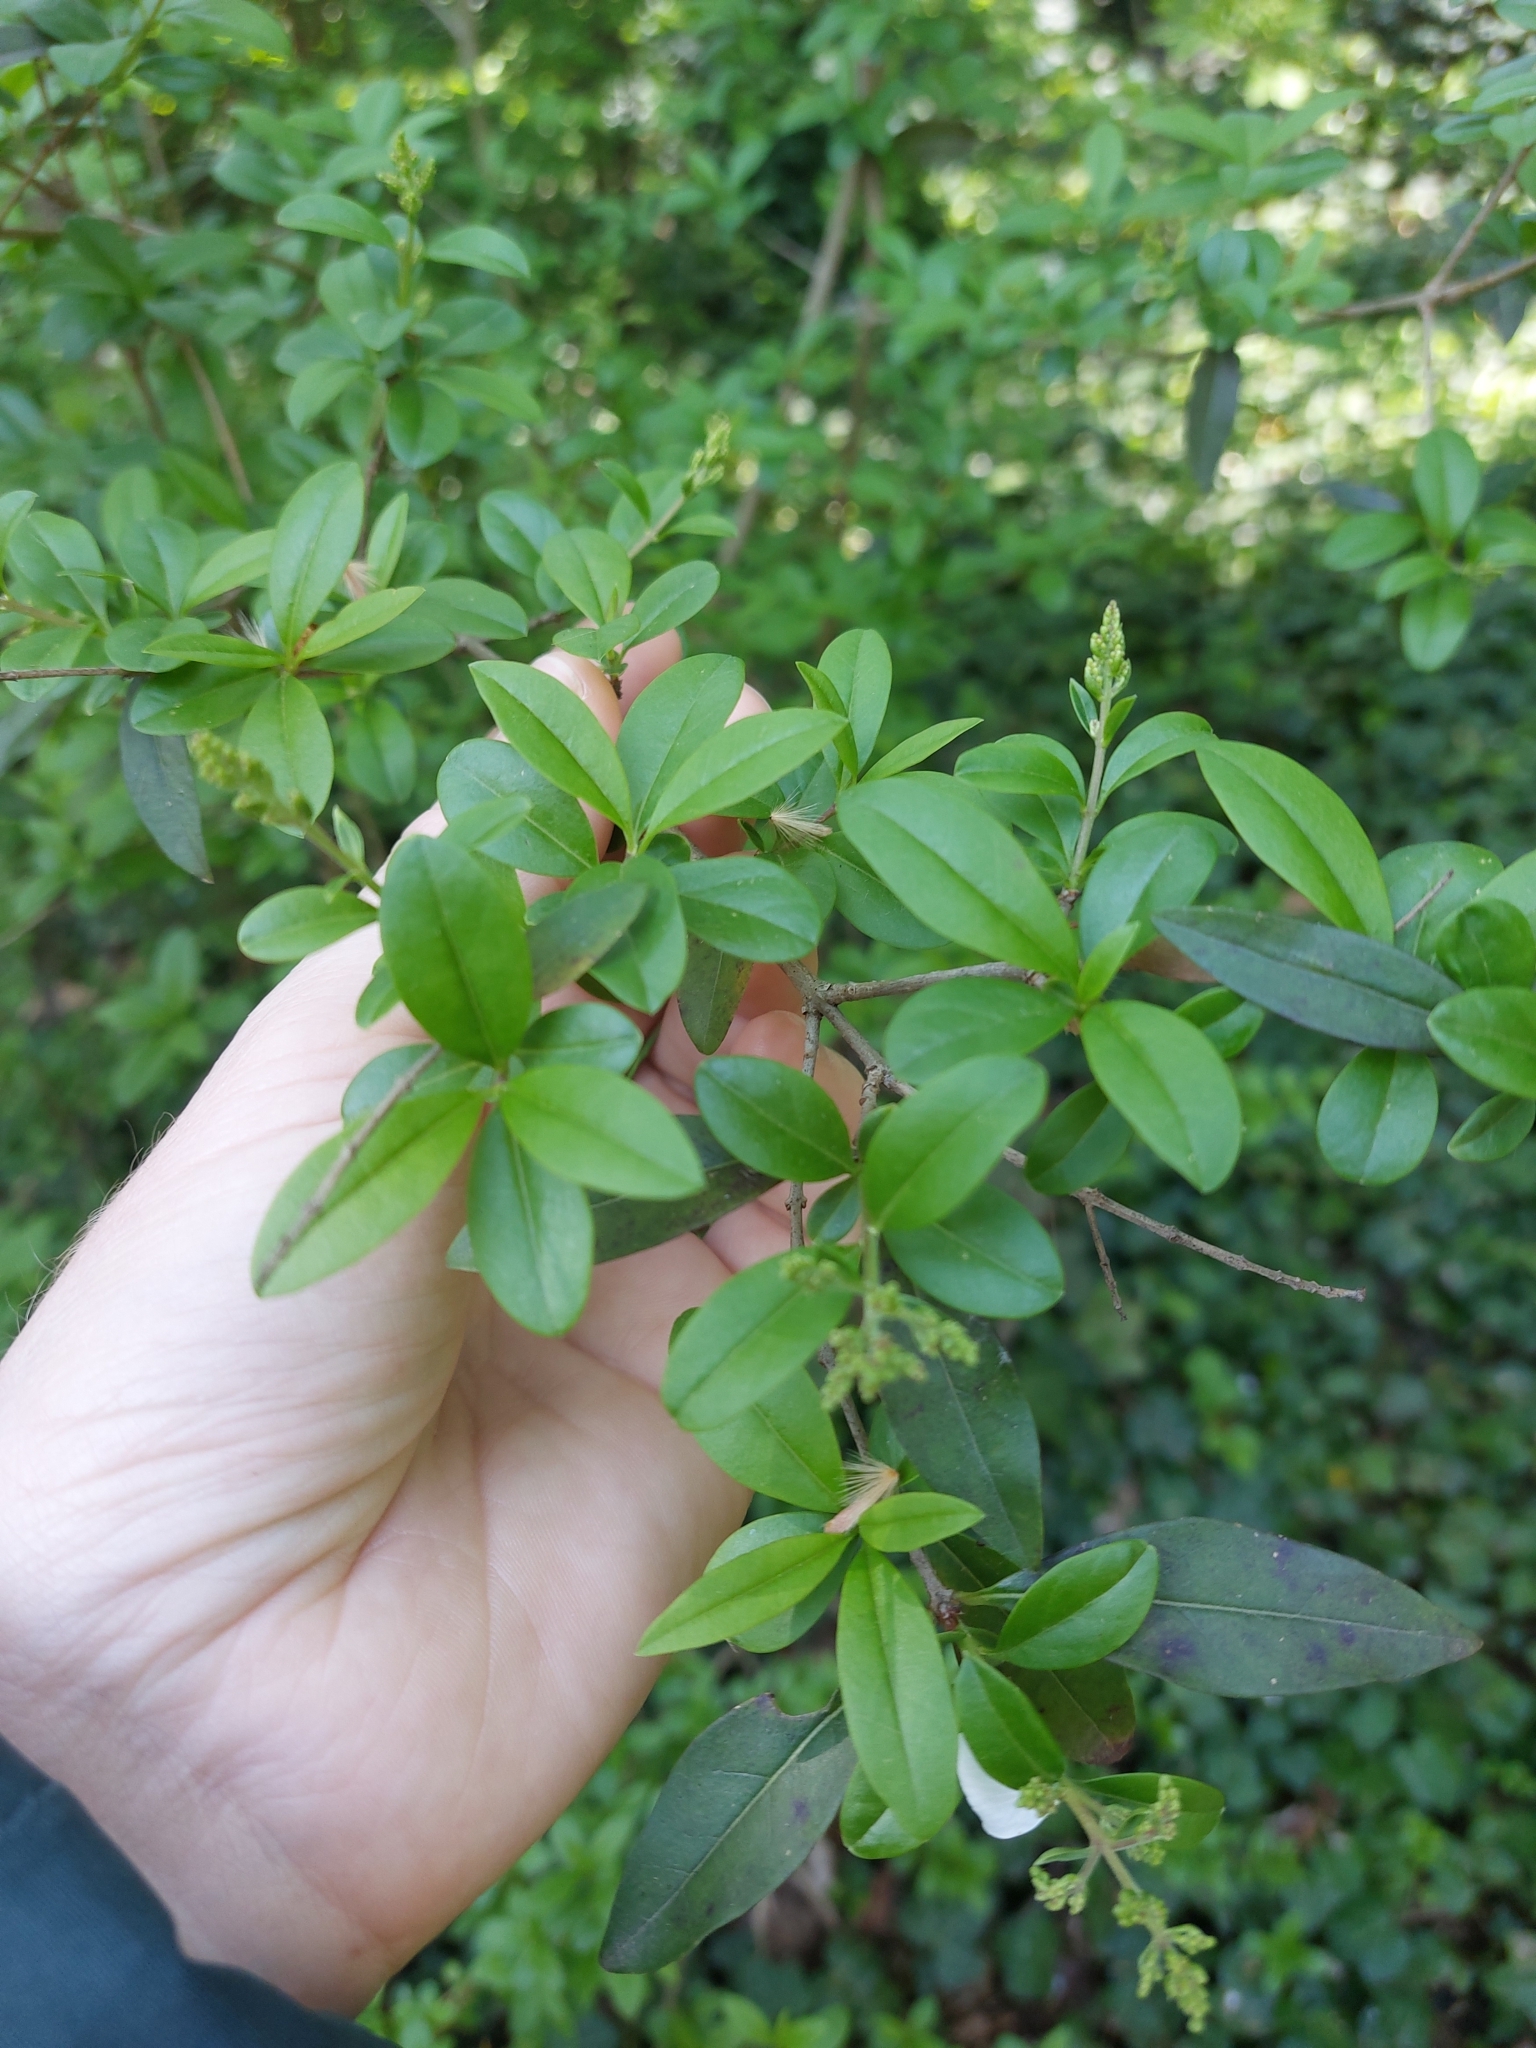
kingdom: Plantae
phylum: Tracheophyta
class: Magnoliopsida
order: Lamiales
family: Oleaceae
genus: Ligustrum
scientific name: Ligustrum vulgare
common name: Wild privet
